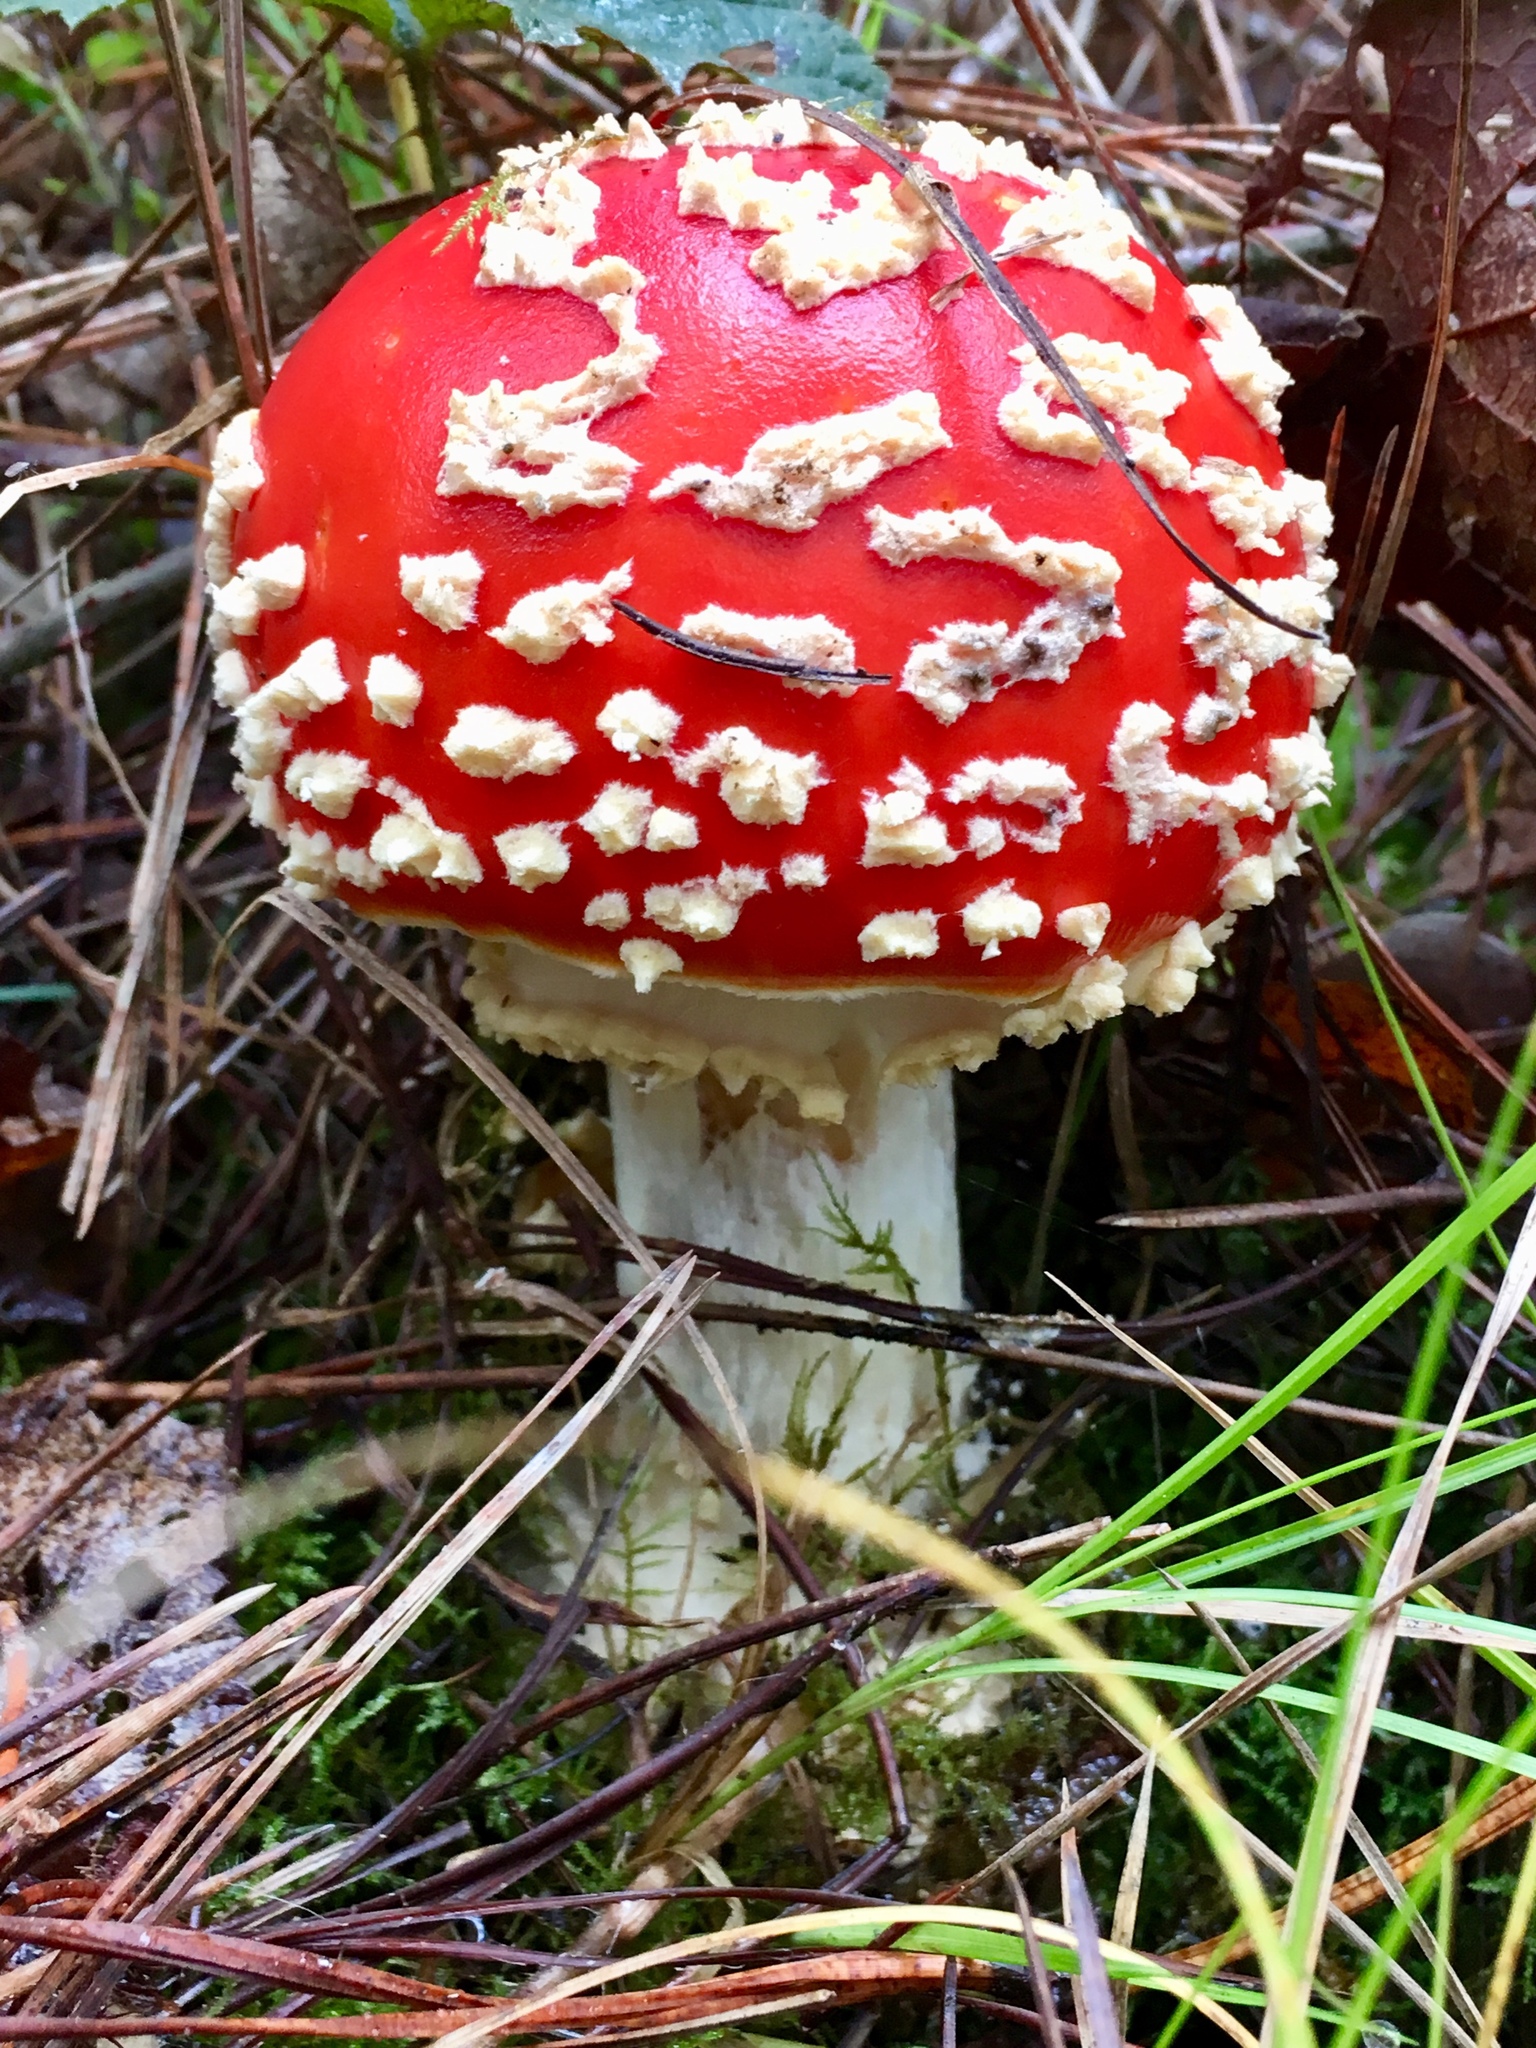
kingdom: Fungi
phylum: Basidiomycota
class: Agaricomycetes
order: Agaricales
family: Amanitaceae
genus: Amanita
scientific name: Amanita muscaria
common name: Fly agaric
